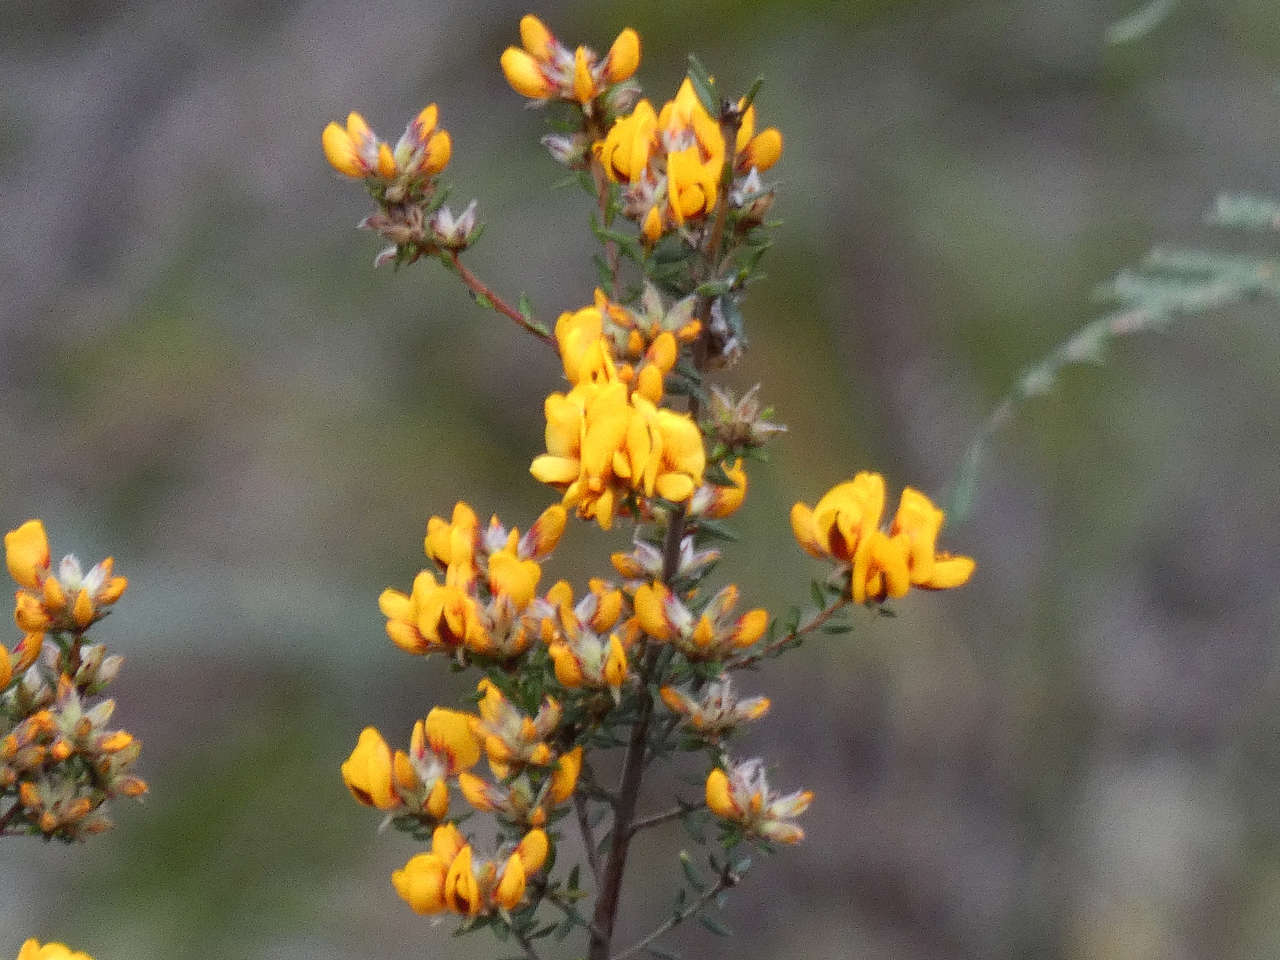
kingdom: Plantae
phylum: Tracheophyta
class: Magnoliopsida
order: Fabales
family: Fabaceae
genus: Pultenaea
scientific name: Pultenaea gunnii
